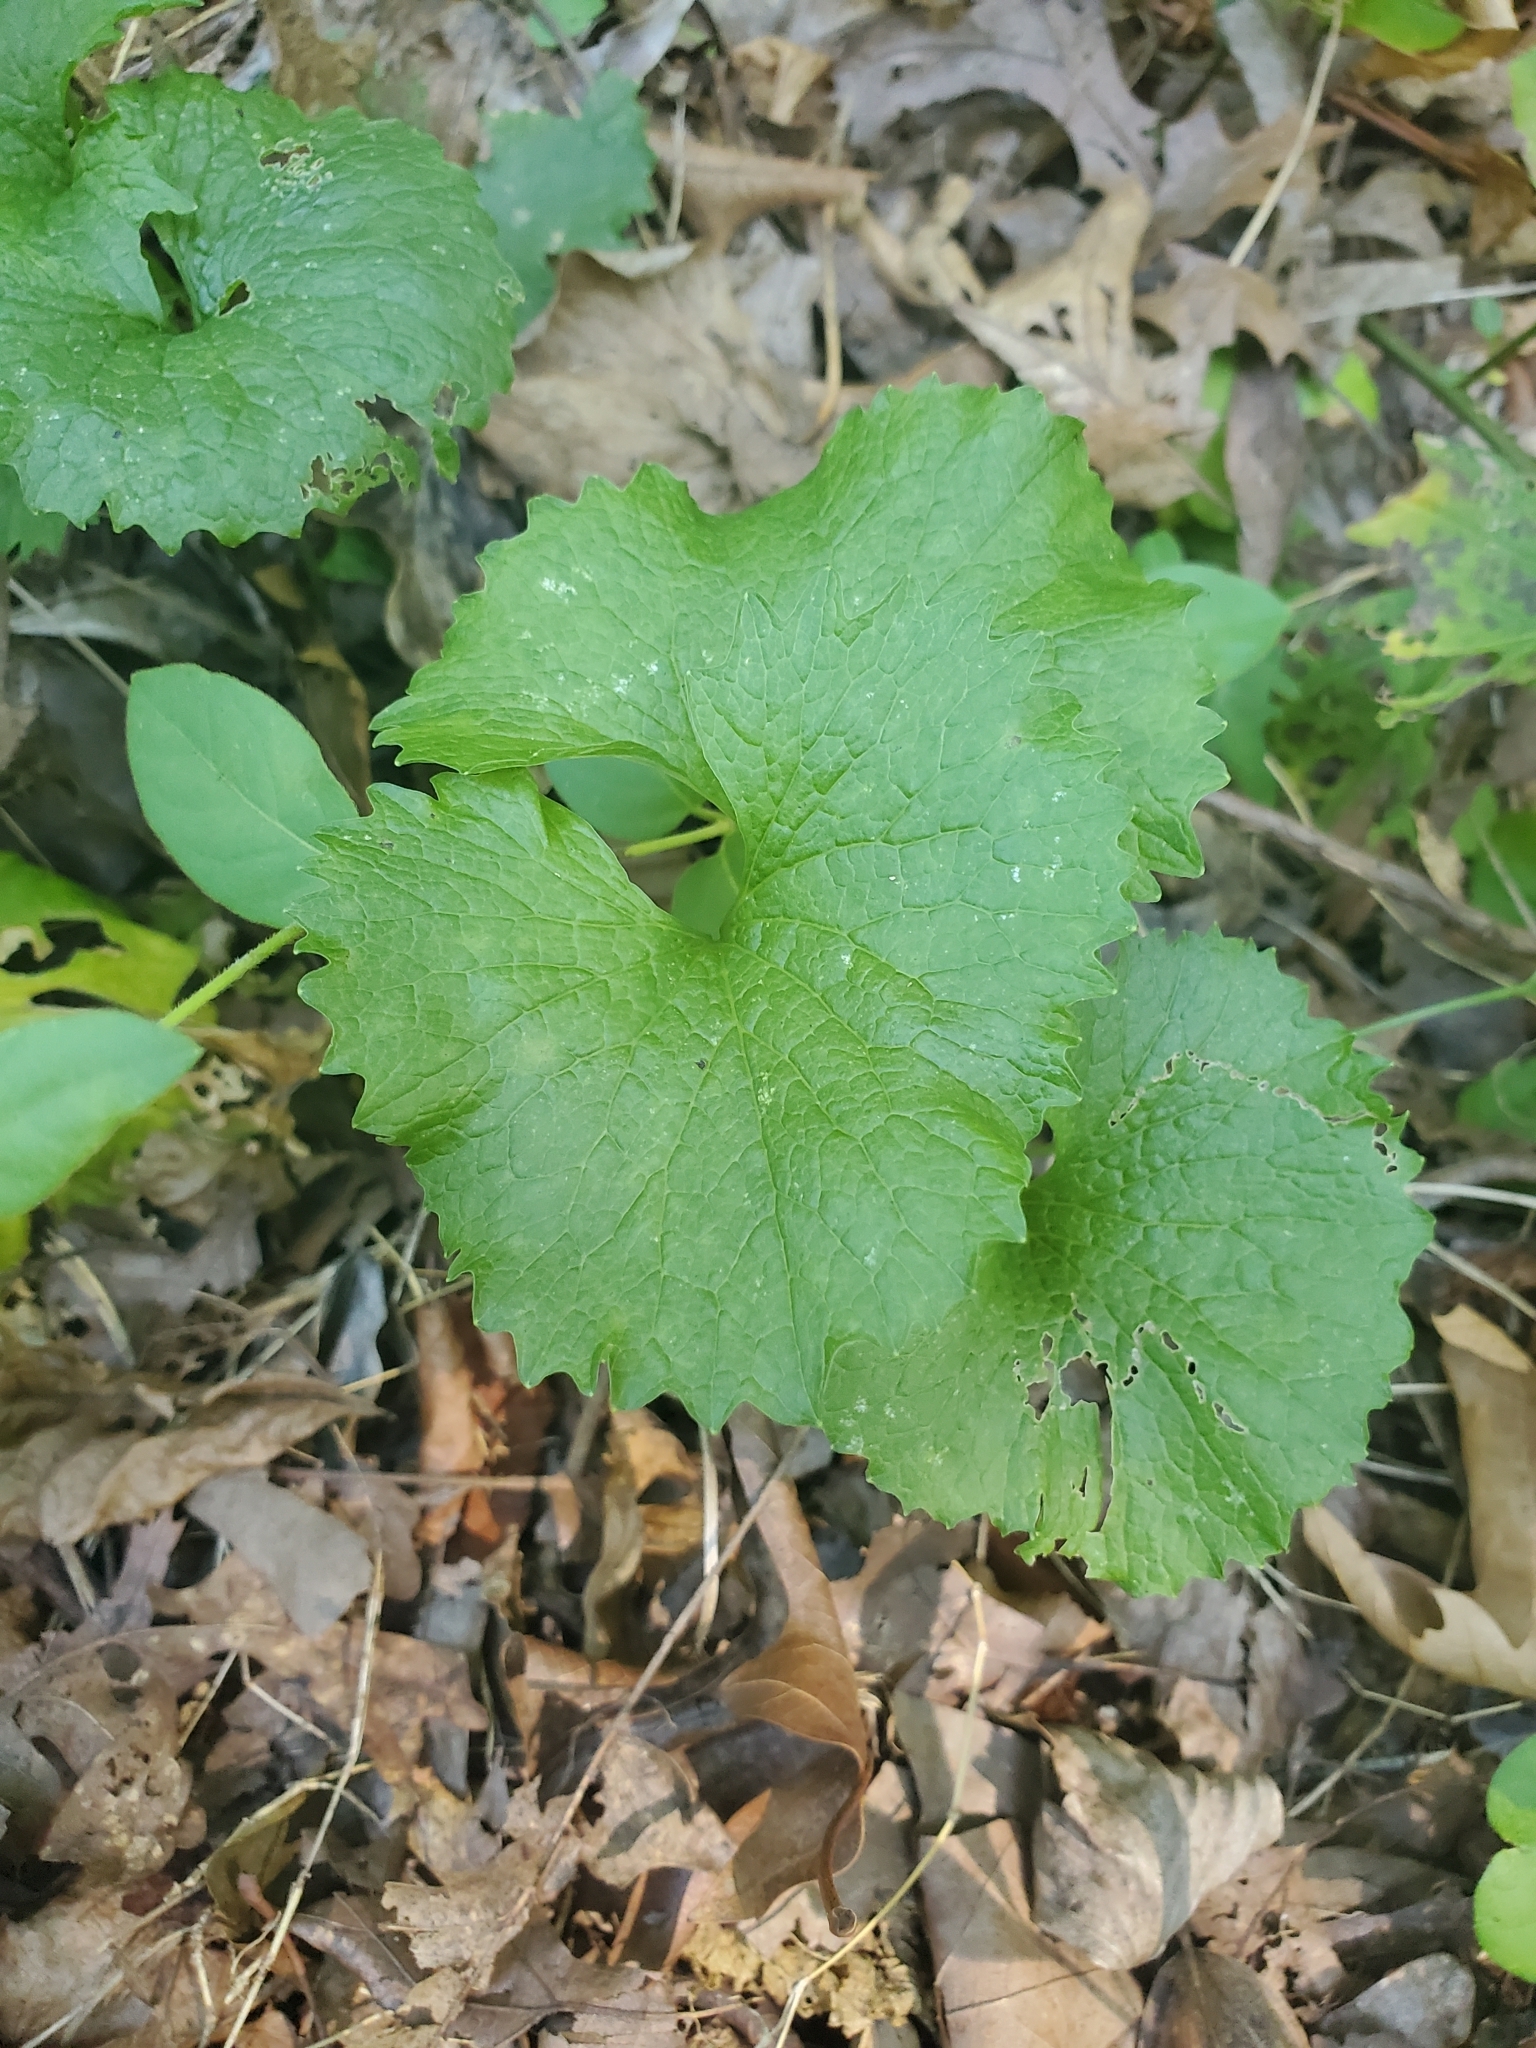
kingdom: Plantae
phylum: Tracheophyta
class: Magnoliopsida
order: Brassicales
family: Brassicaceae
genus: Alliaria
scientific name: Alliaria petiolata
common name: Garlic mustard
